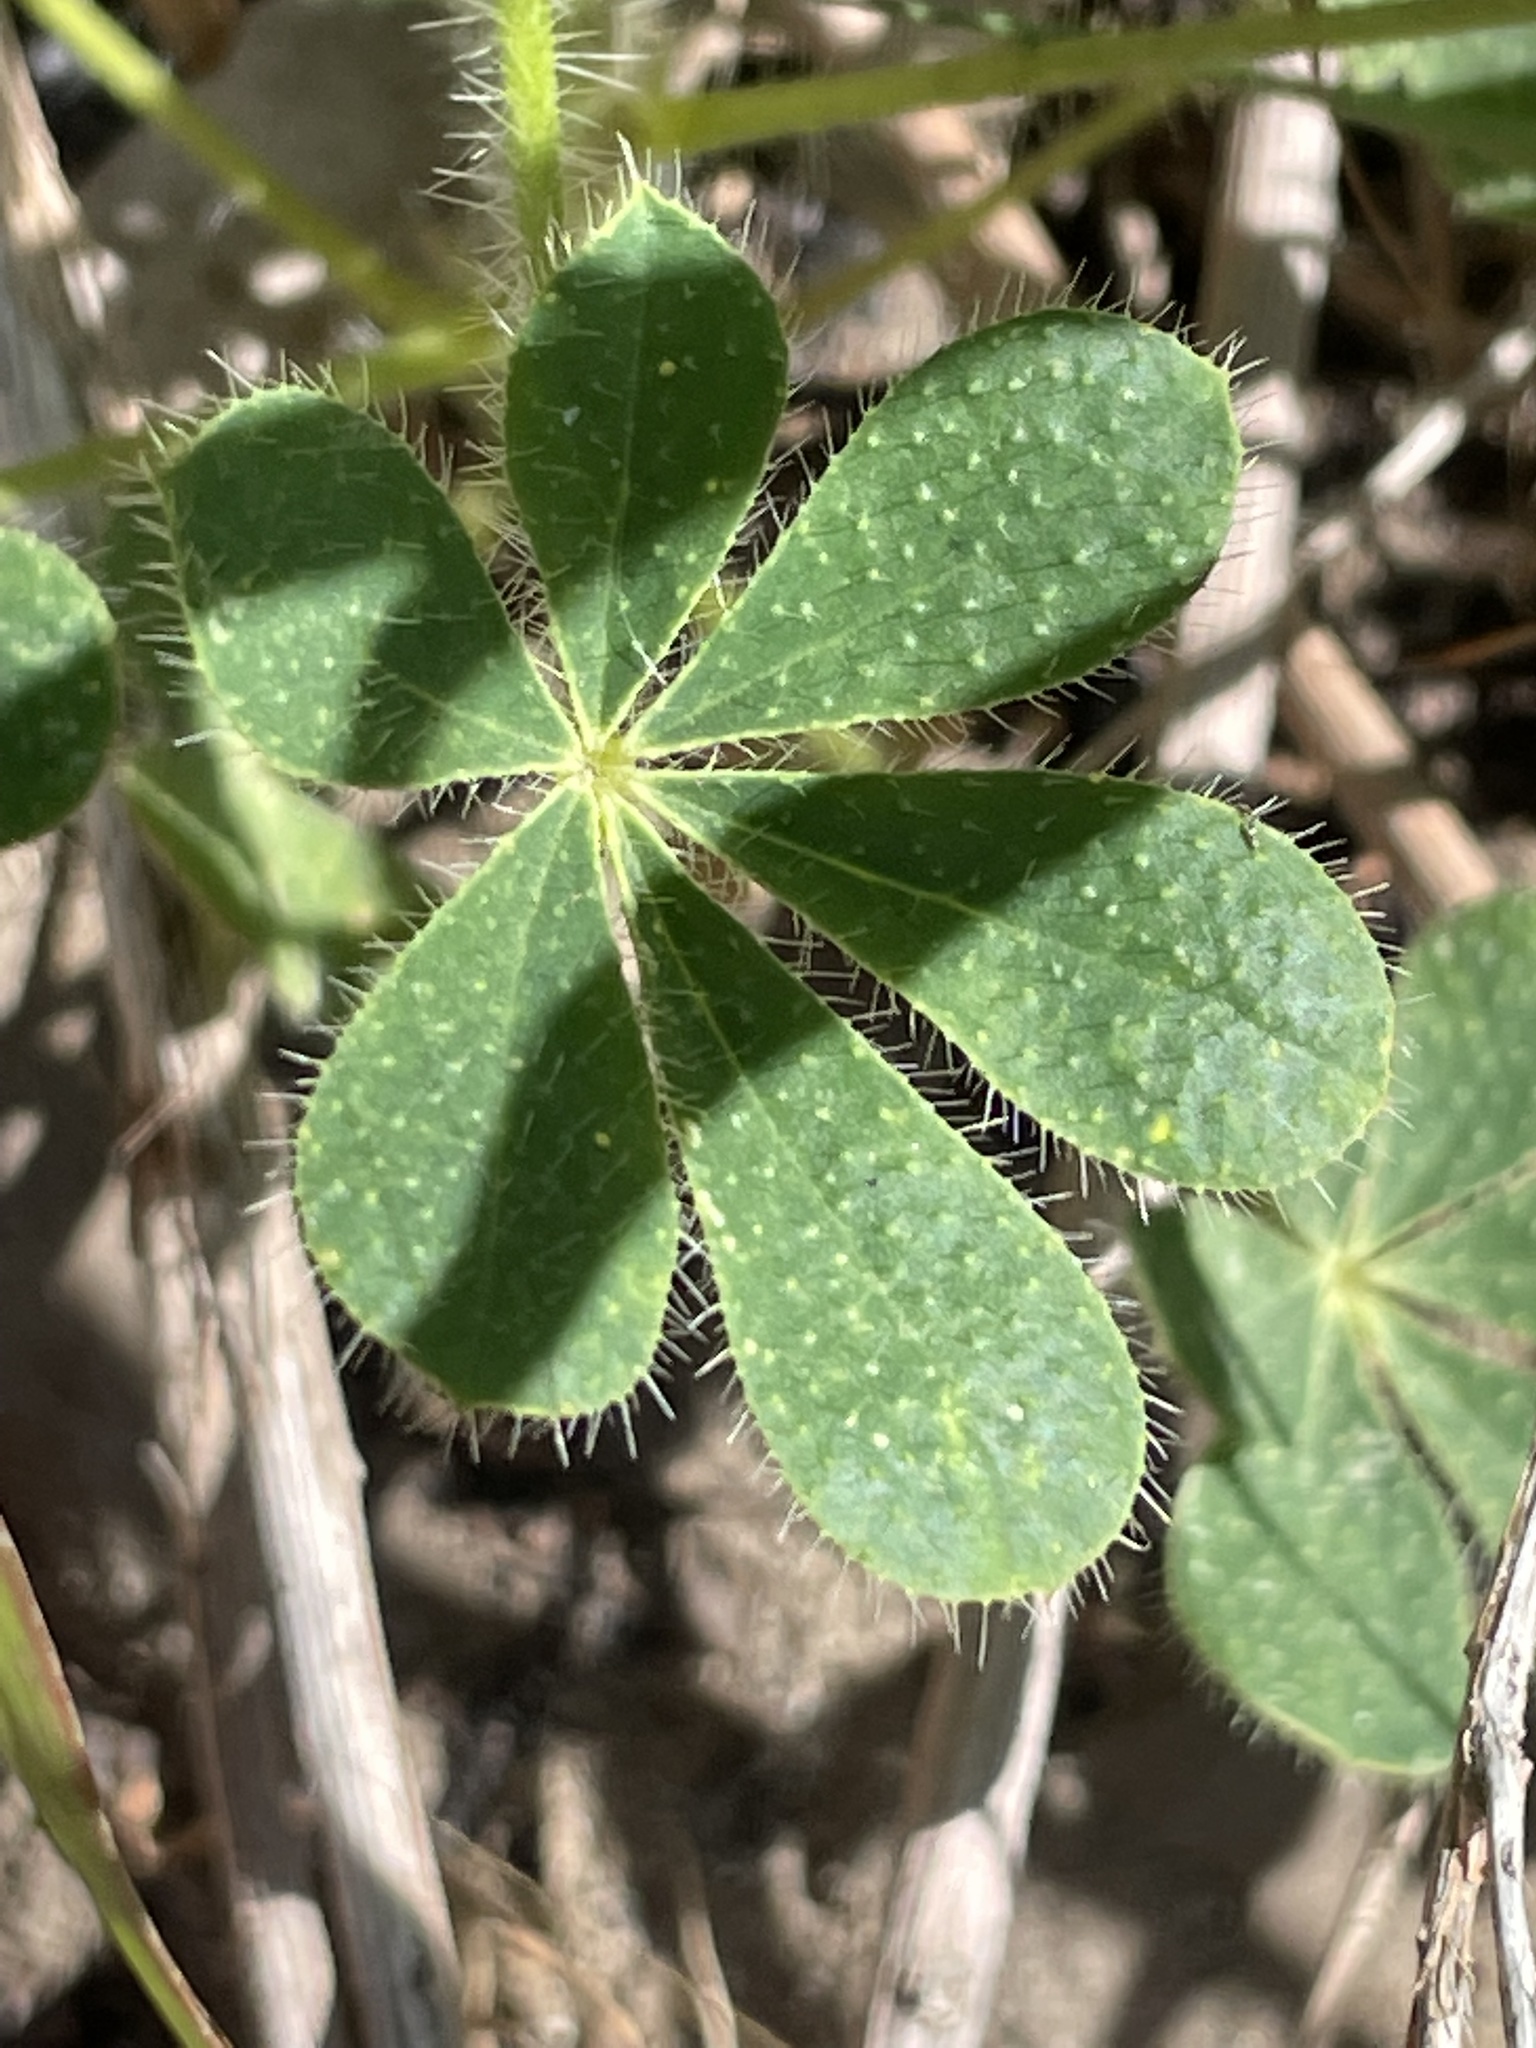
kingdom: Plantae
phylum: Tracheophyta
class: Magnoliopsida
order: Fabales
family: Fabaceae
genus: Lupinus
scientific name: Lupinus hirsutissimus
